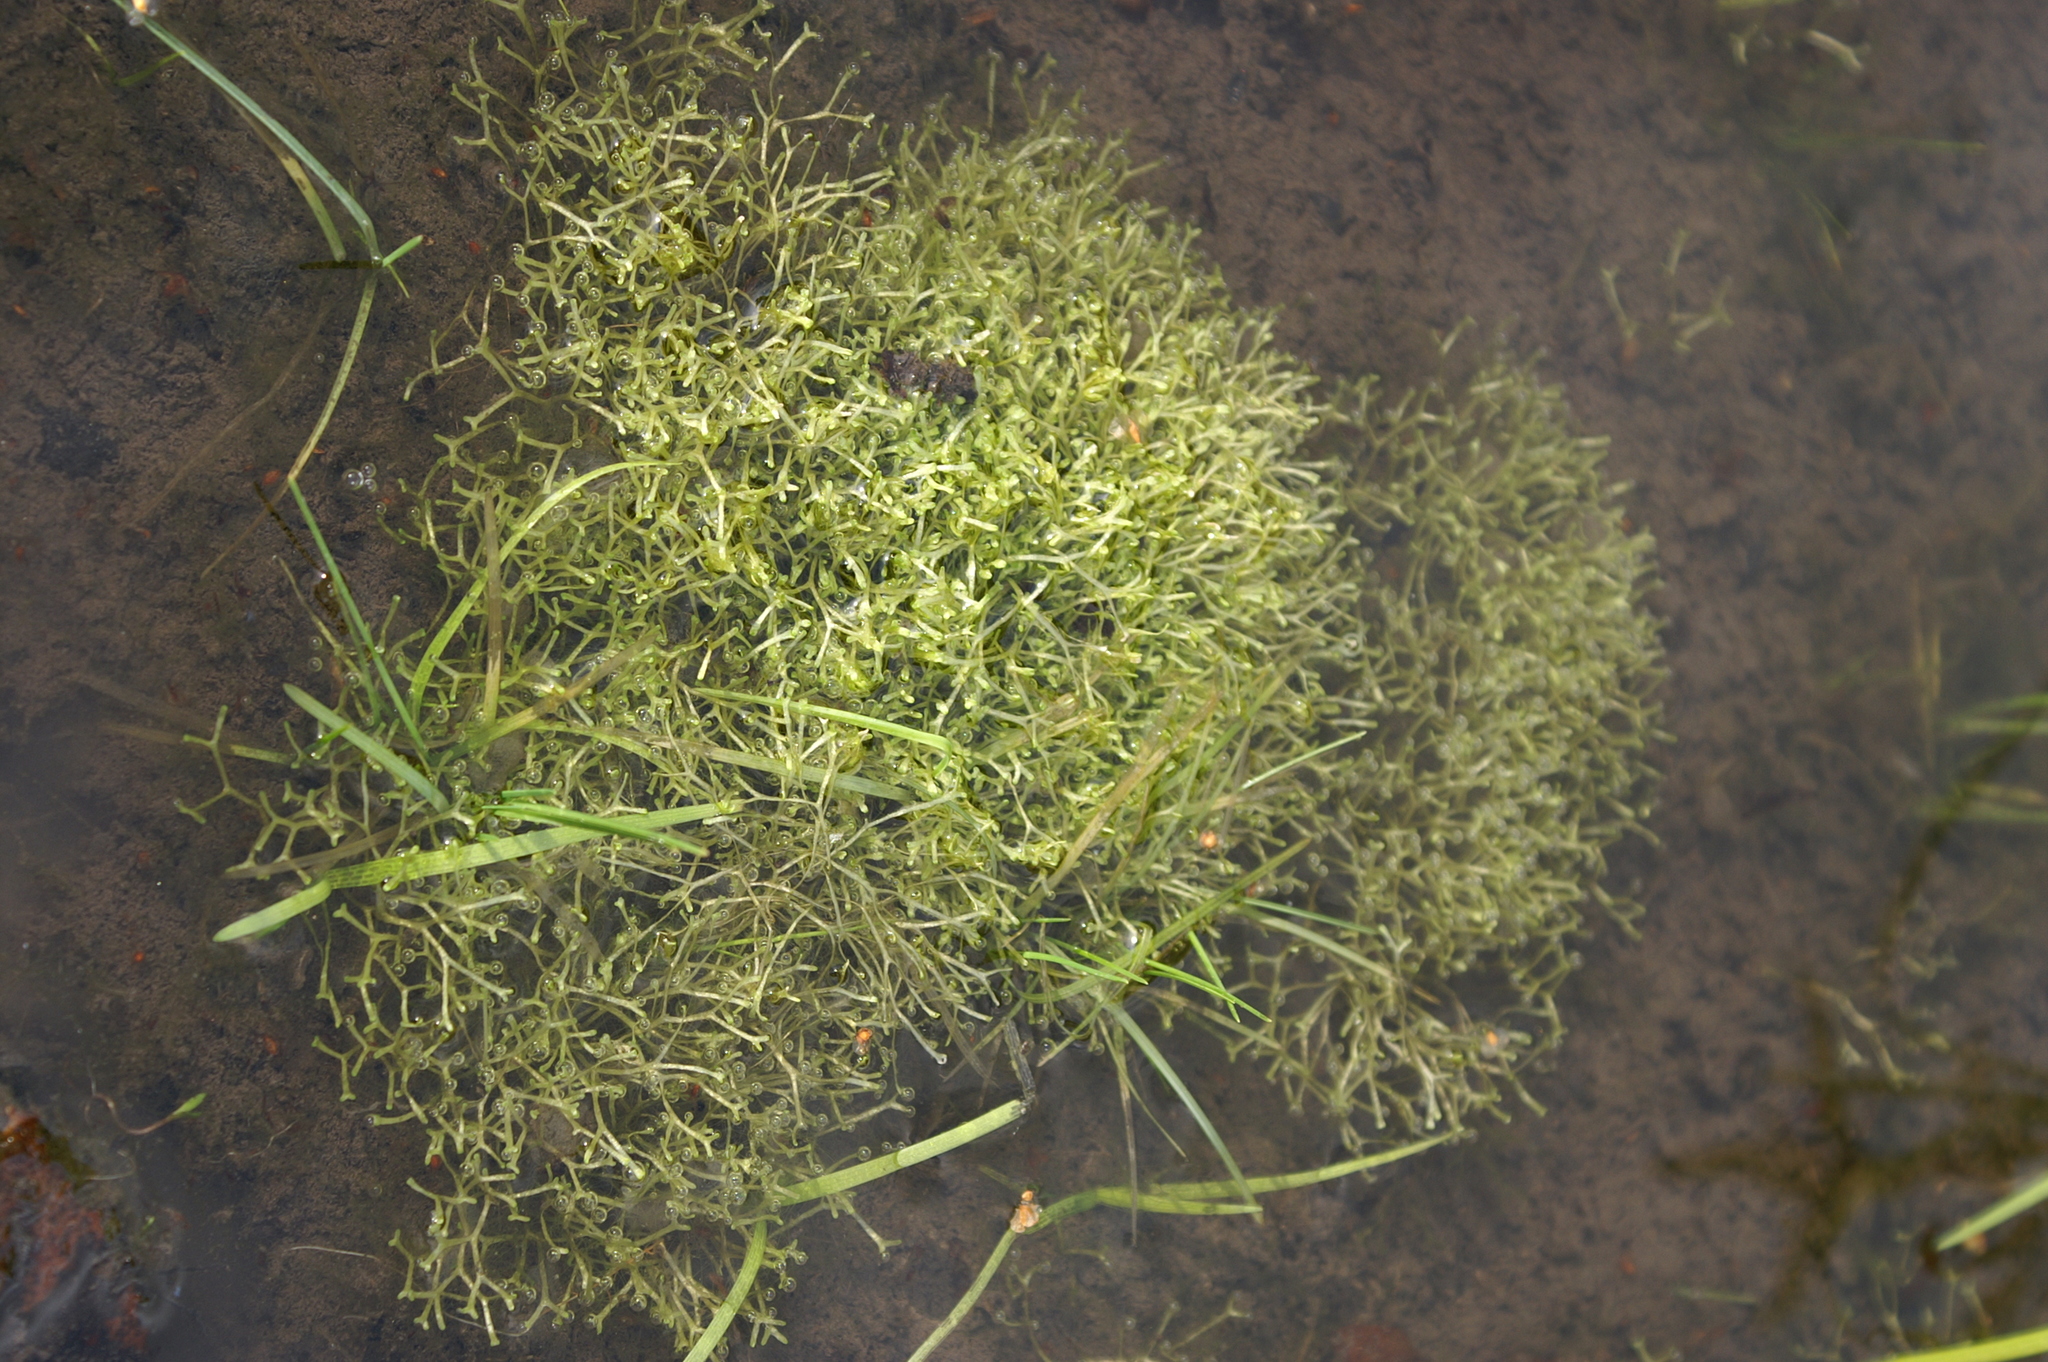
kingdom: Plantae
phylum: Marchantiophyta
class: Marchantiopsida
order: Marchantiales
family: Ricciaceae
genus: Riccia
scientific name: Riccia fluitans
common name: Floating crystalwort
